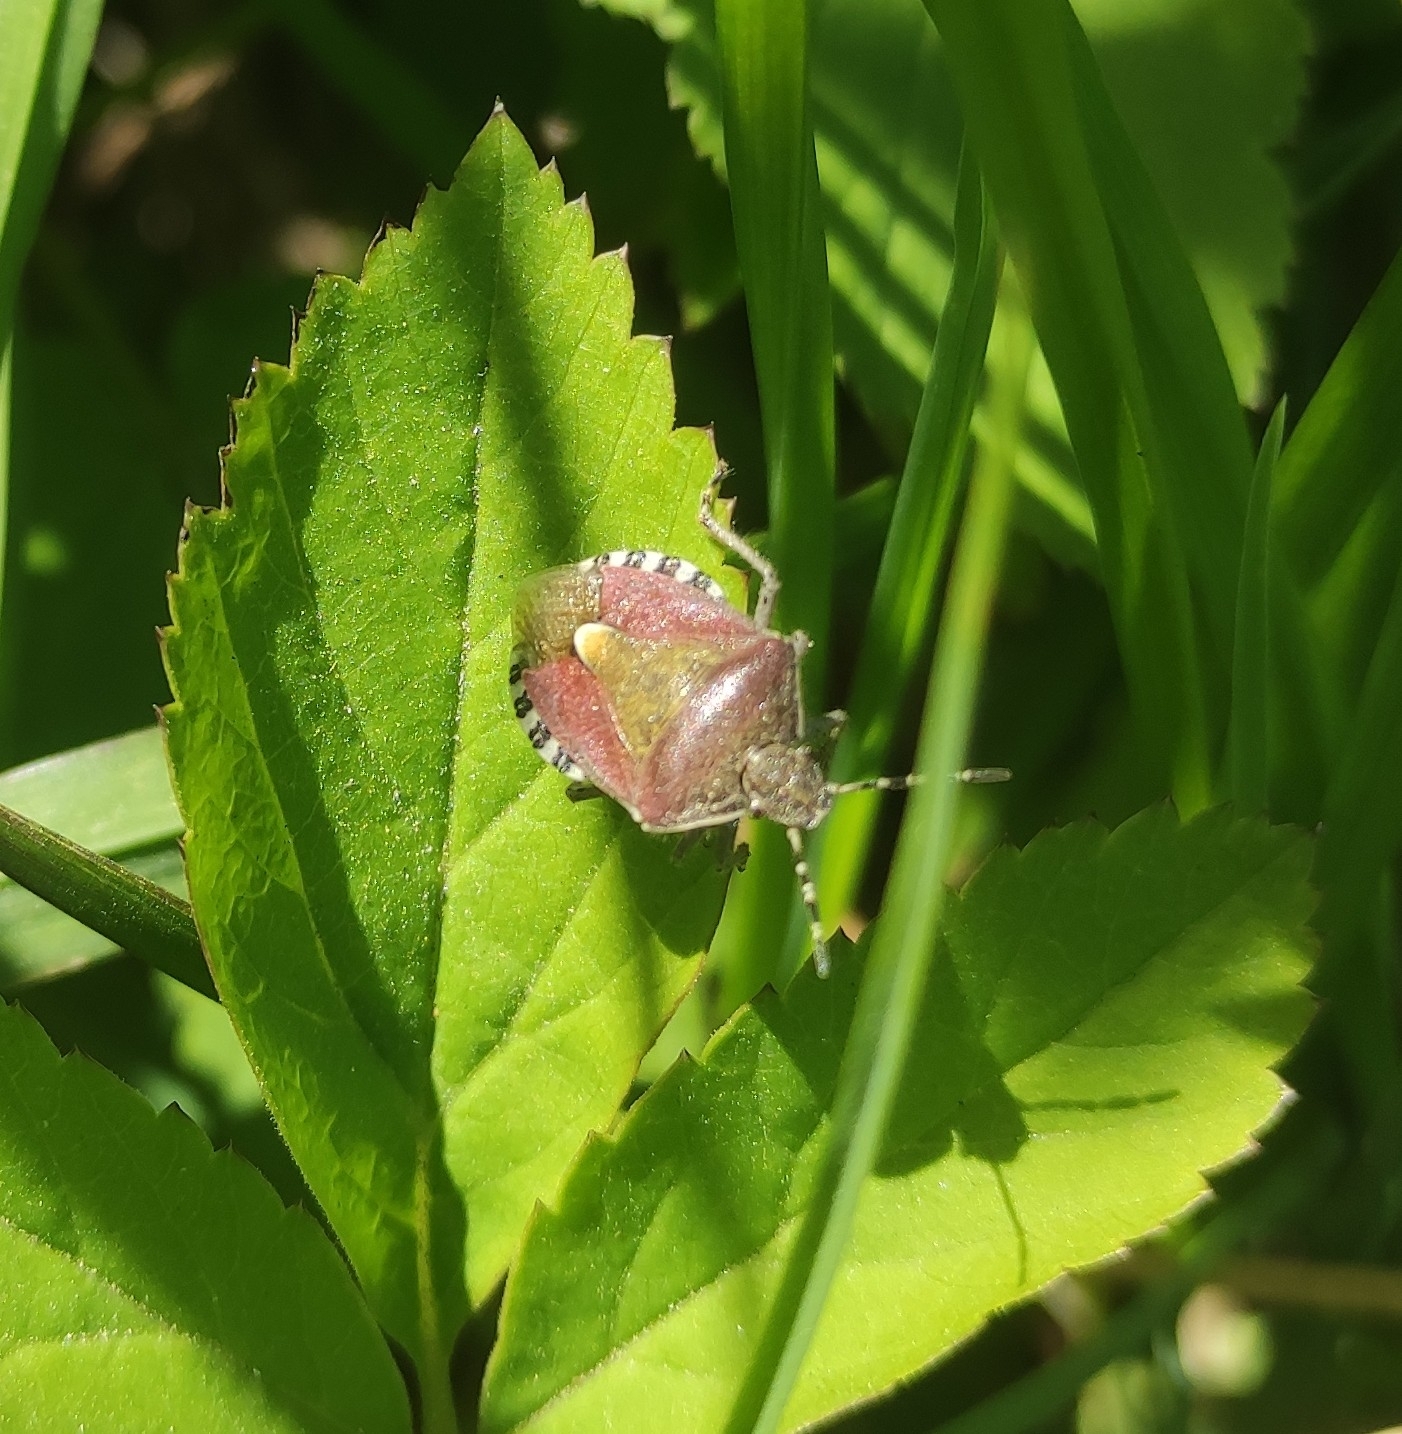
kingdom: Animalia
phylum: Arthropoda
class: Insecta
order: Hemiptera
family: Pentatomidae
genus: Dolycoris
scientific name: Dolycoris baccarum
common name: Sloe bug
